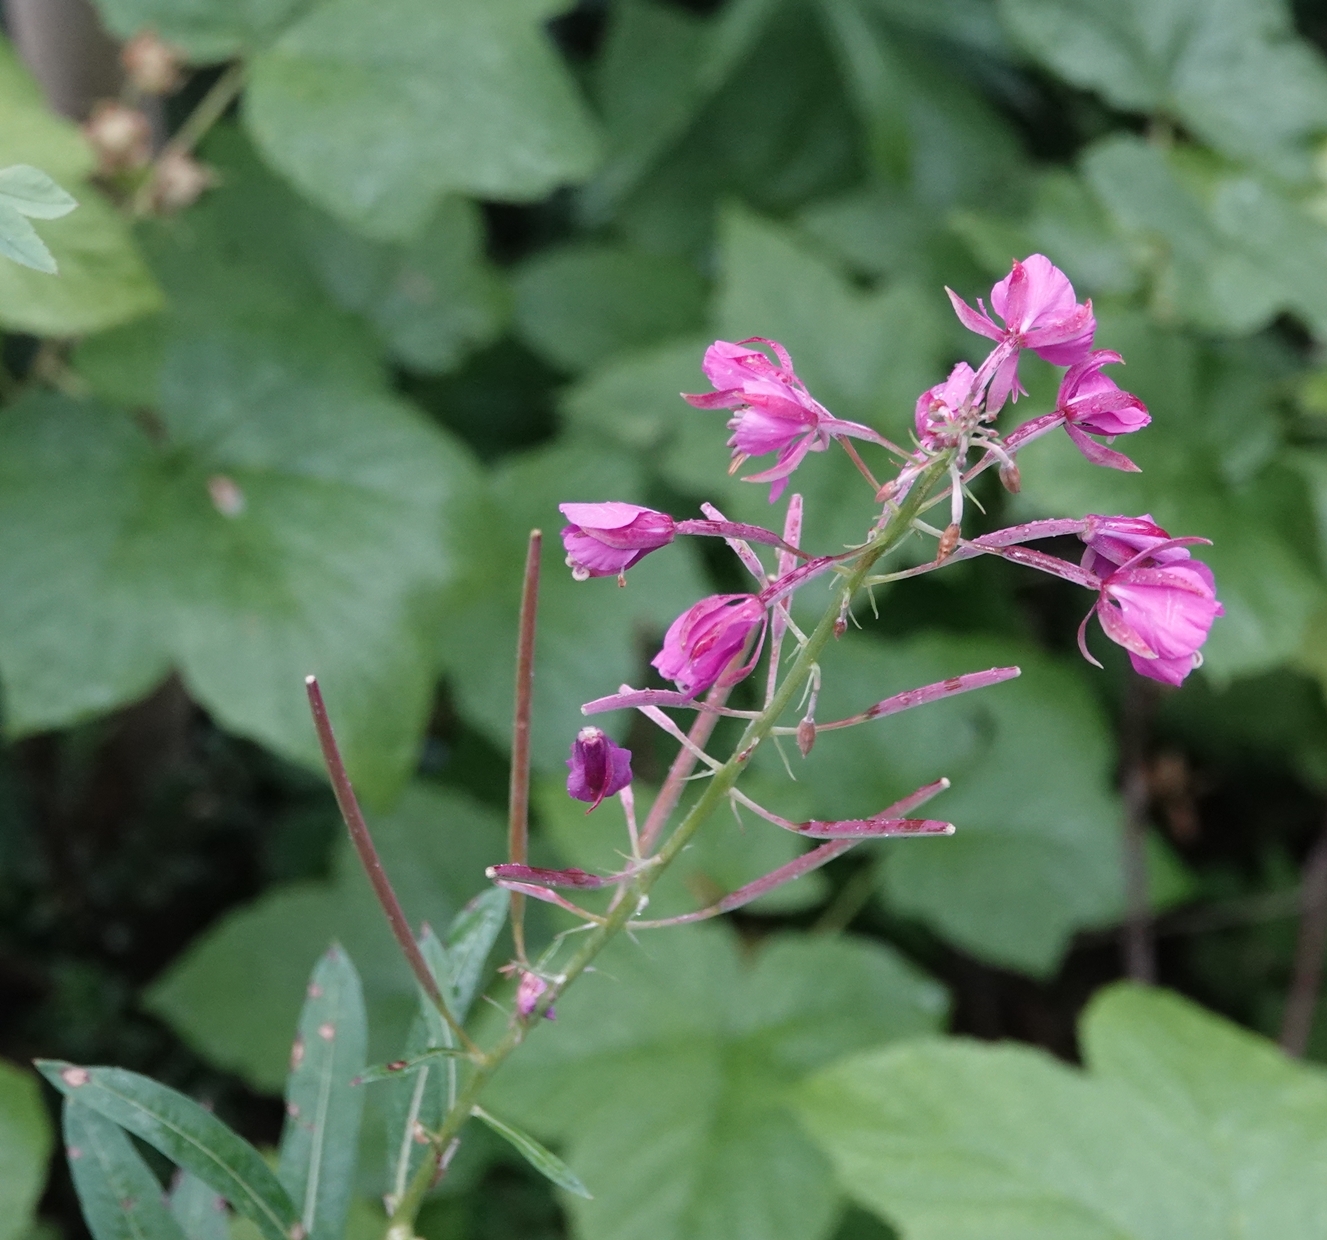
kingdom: Plantae
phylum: Tracheophyta
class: Magnoliopsida
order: Myrtales
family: Onagraceae
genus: Chamaenerion
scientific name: Chamaenerion angustifolium
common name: Fireweed
